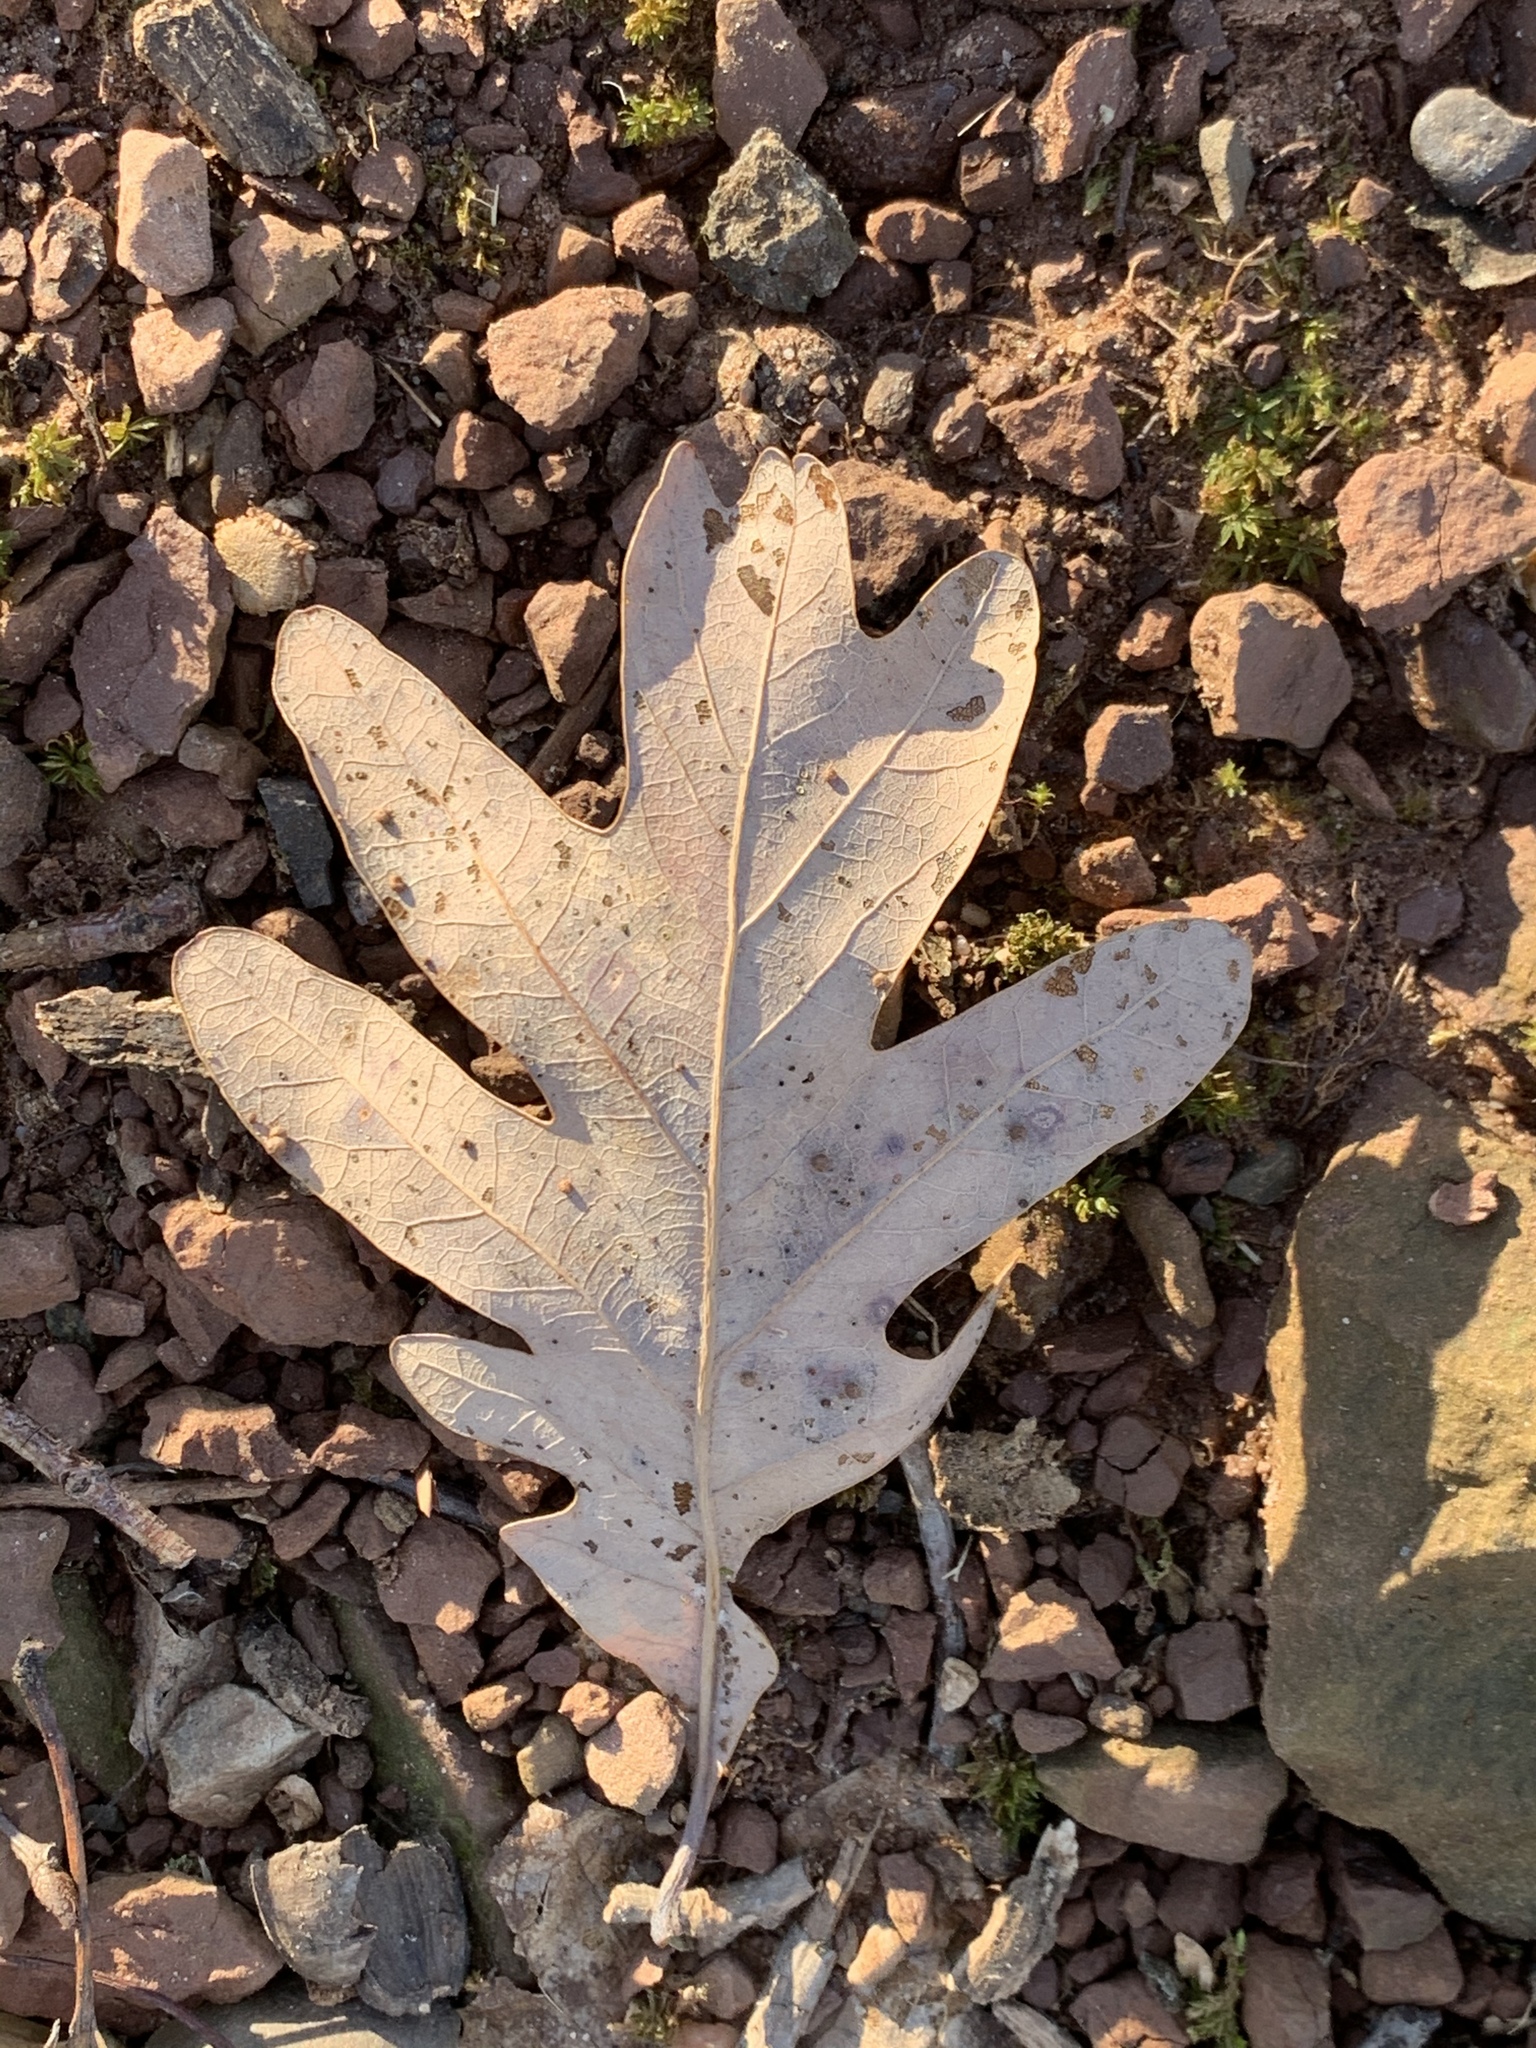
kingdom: Plantae
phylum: Tracheophyta
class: Magnoliopsida
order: Fagales
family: Fagaceae
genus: Quercus
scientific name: Quercus alba
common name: White oak
